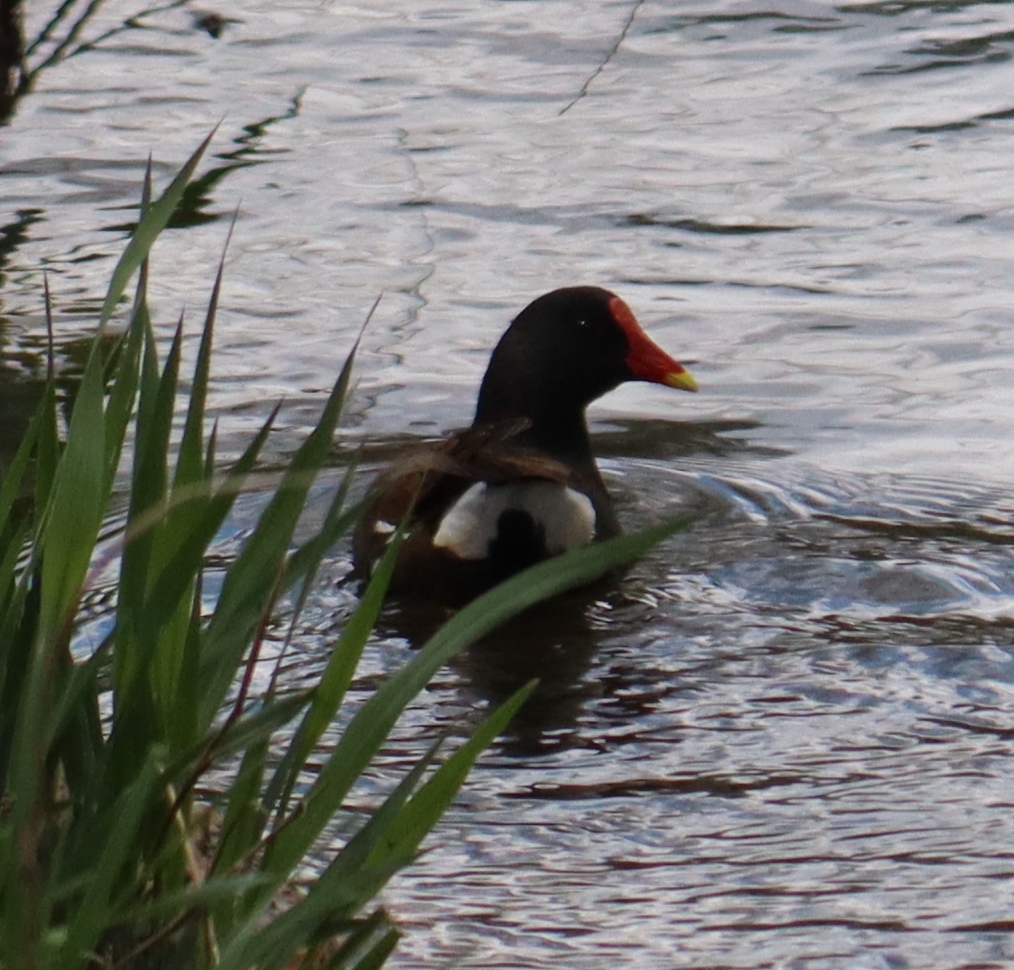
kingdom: Animalia
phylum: Chordata
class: Aves
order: Gruiformes
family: Rallidae
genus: Gallinula
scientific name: Gallinula chloropus
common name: Common moorhen
